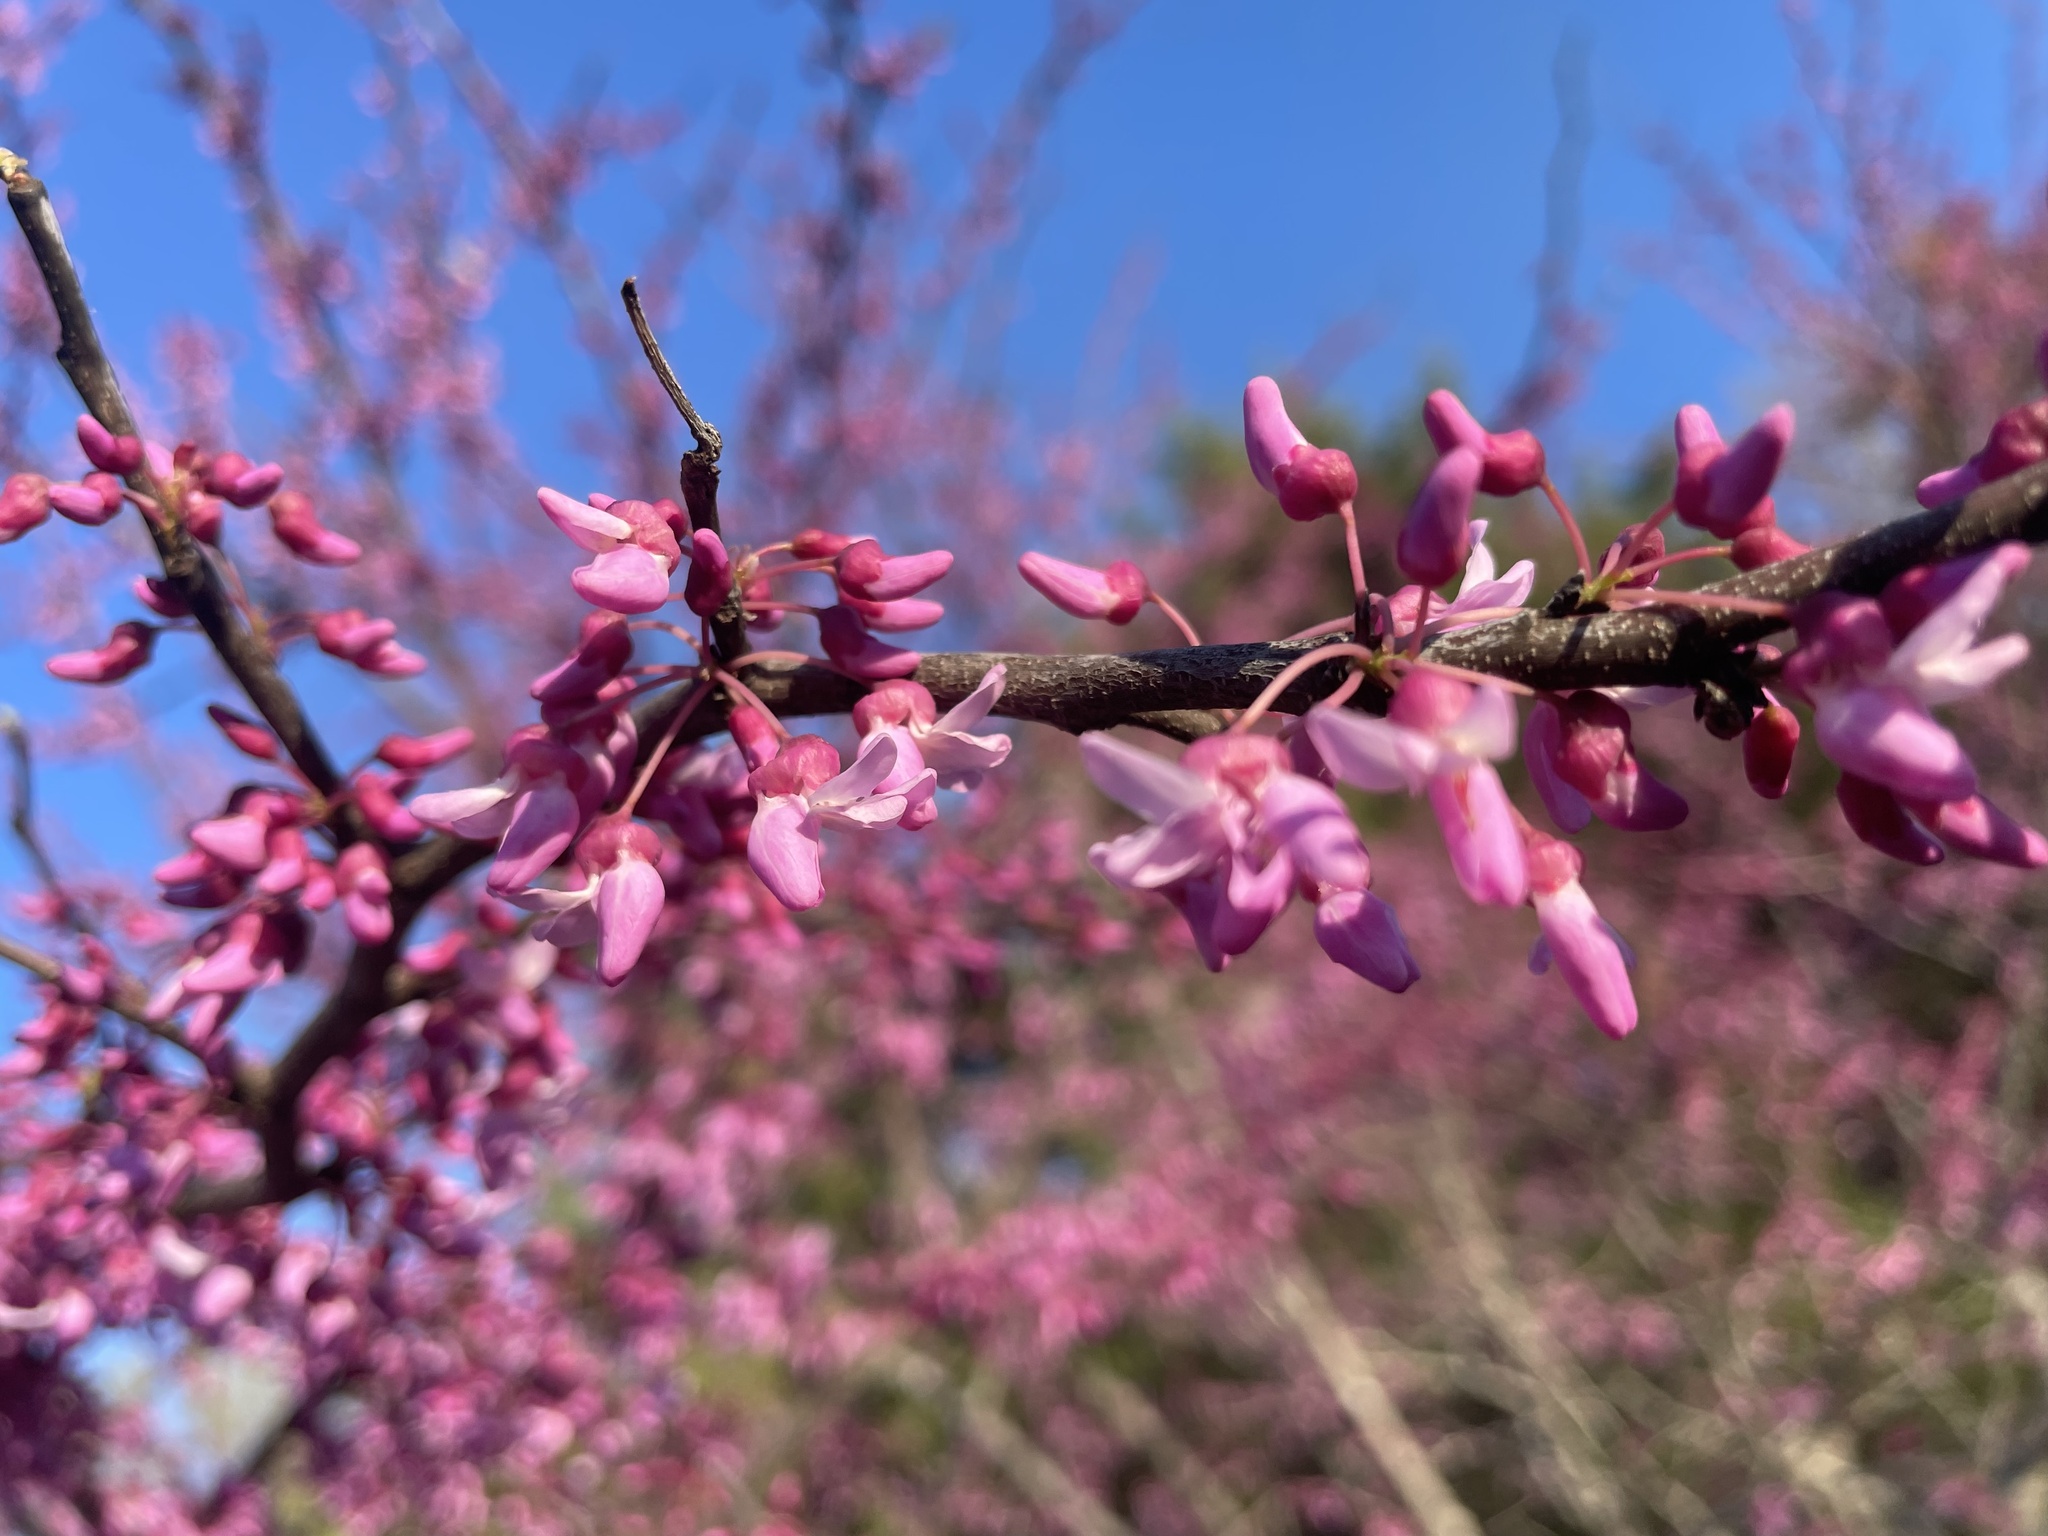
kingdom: Plantae
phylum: Tracheophyta
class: Magnoliopsida
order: Fabales
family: Fabaceae
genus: Cercis
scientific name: Cercis canadensis
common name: Eastern redbud
